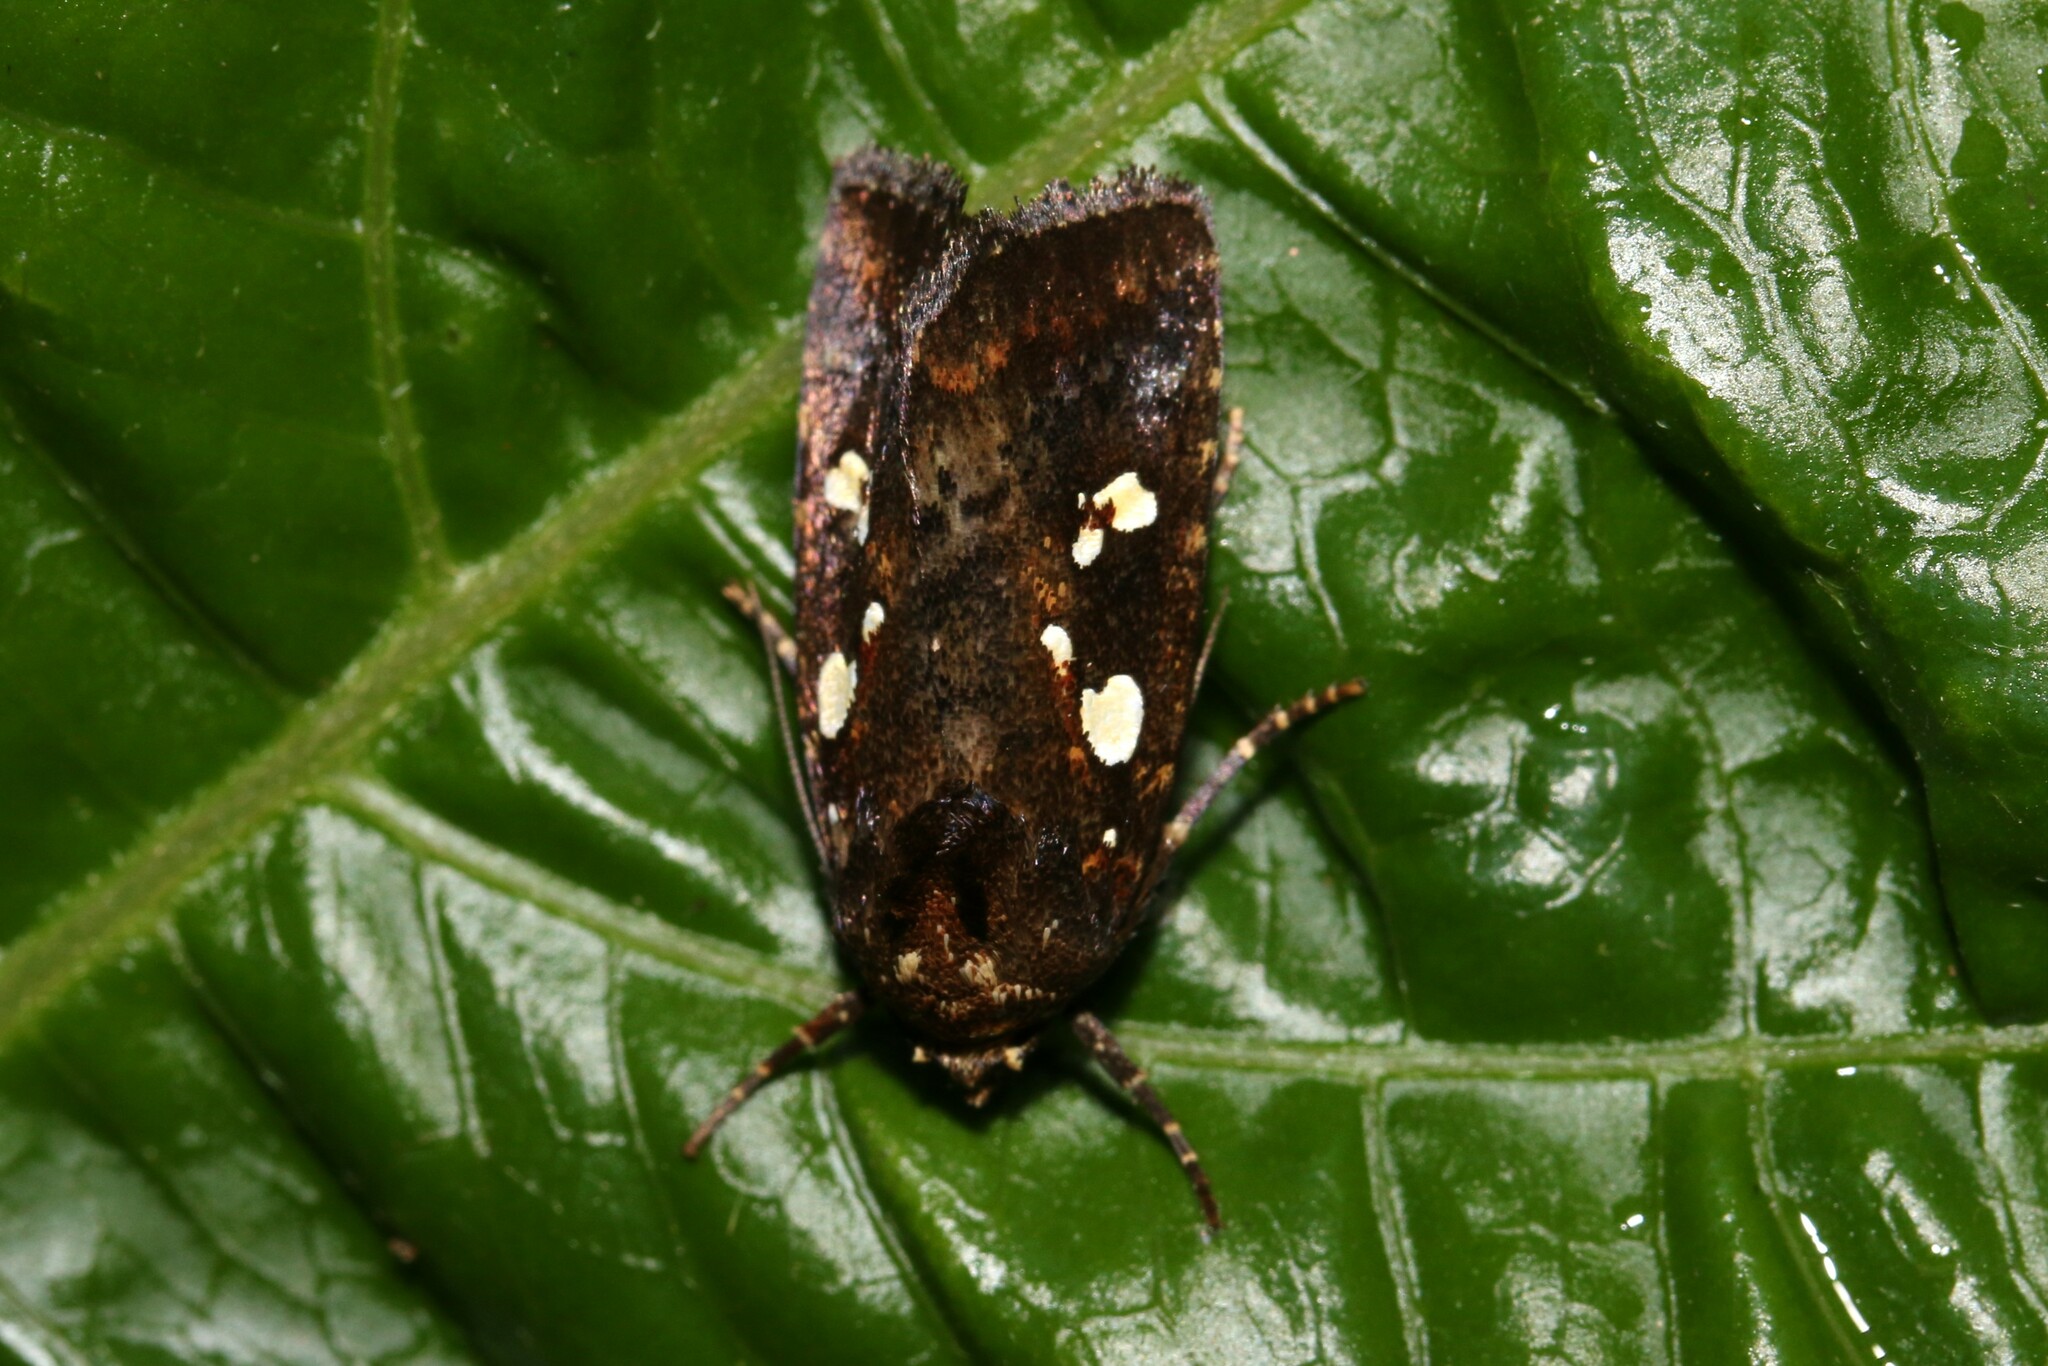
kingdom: Animalia
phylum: Arthropoda
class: Insecta
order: Lepidoptera
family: Noctuidae
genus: Calymniodes
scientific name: Calymniodes pyrostrota
